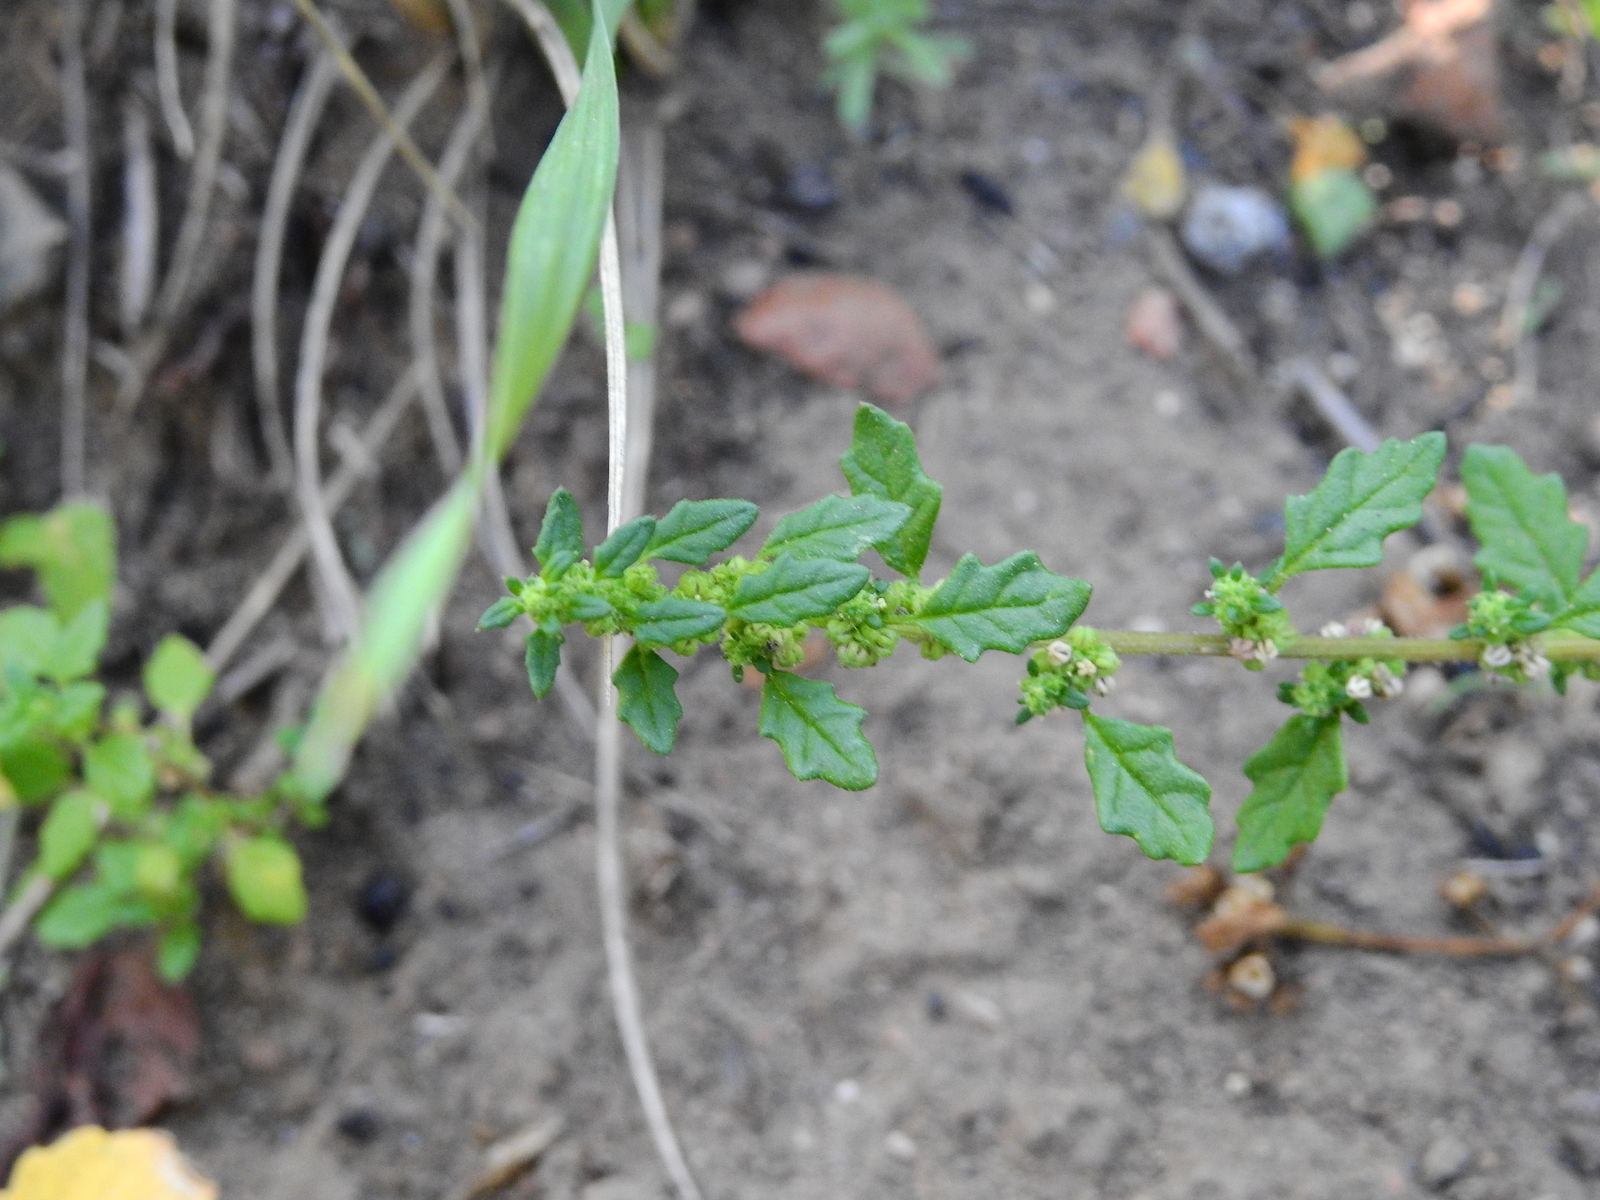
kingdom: Plantae
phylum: Tracheophyta
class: Magnoliopsida
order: Caryophyllales
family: Amaranthaceae
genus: Dysphania
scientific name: Dysphania ambrosioides
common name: Wormseed
